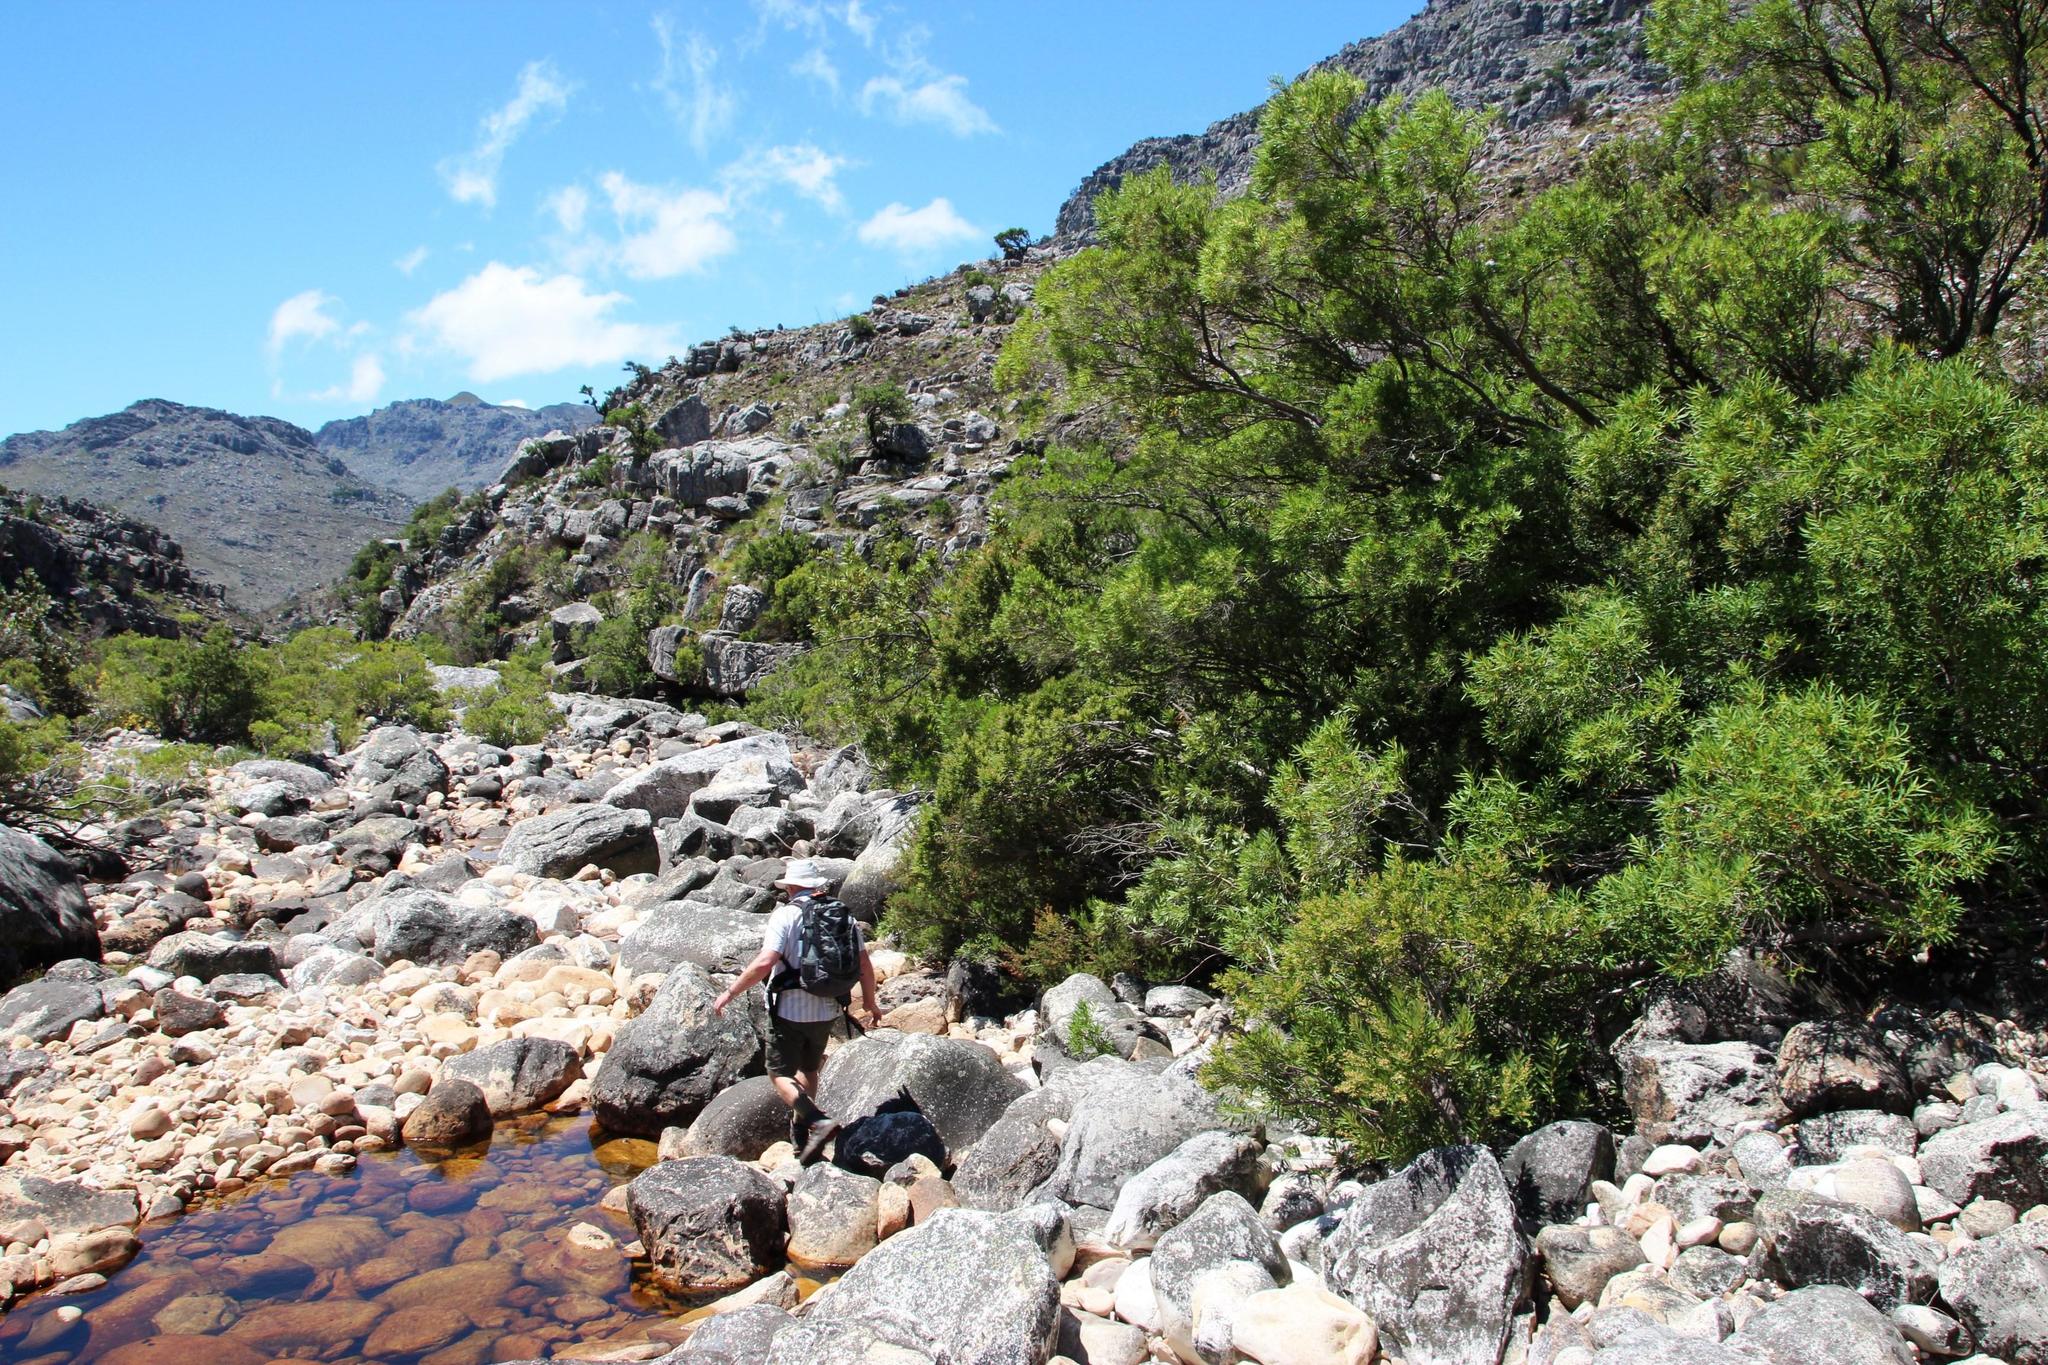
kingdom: Plantae
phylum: Tracheophyta
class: Magnoliopsida
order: Myrtales
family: Myrtaceae
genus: Callistemon
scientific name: Callistemon lanceolatus
